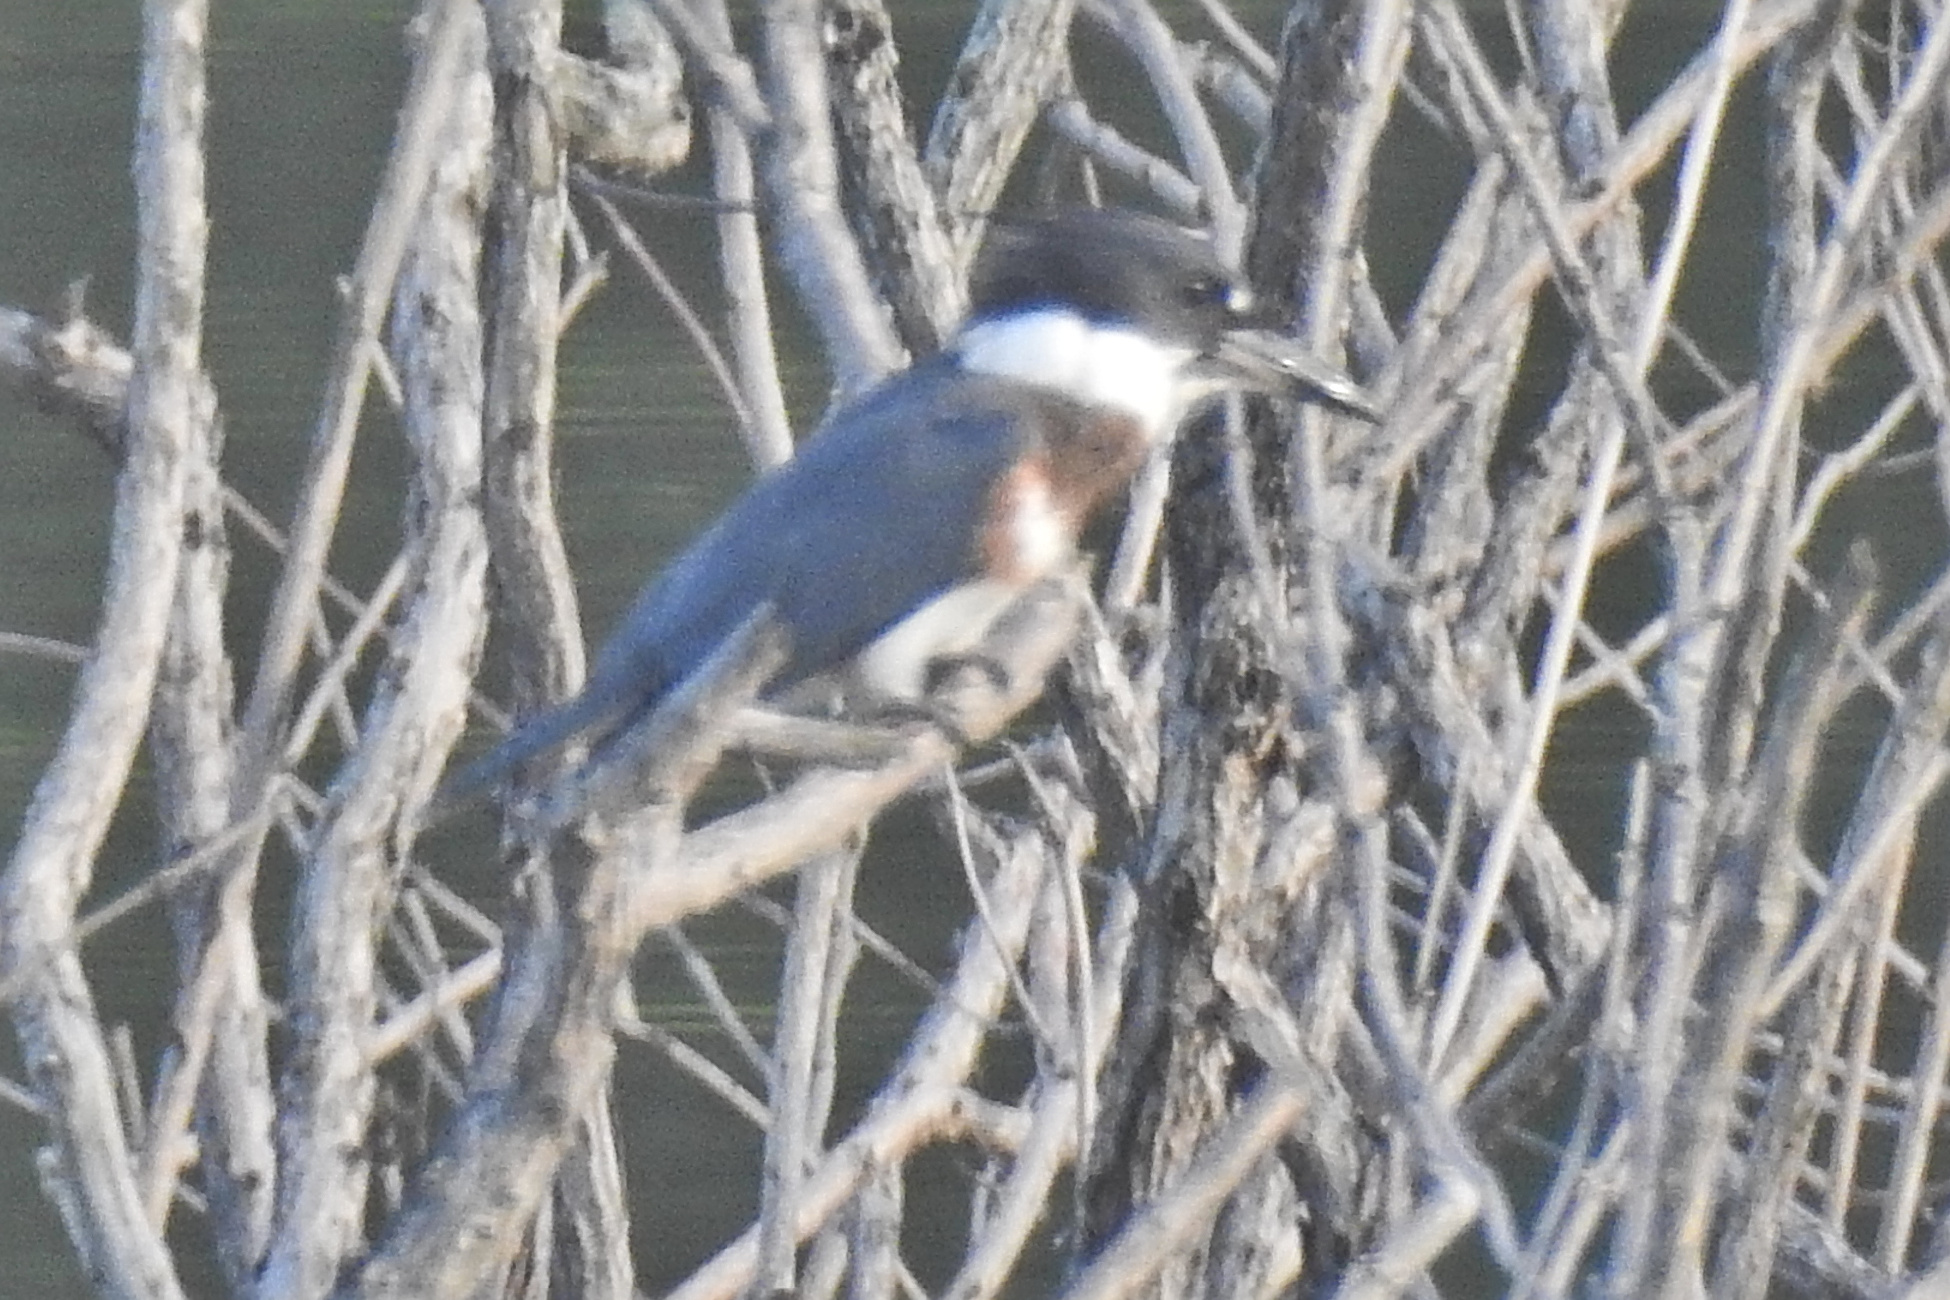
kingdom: Animalia
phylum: Chordata
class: Aves
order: Coraciiformes
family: Alcedinidae
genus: Megaceryle
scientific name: Megaceryle alcyon
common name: Belted kingfisher
